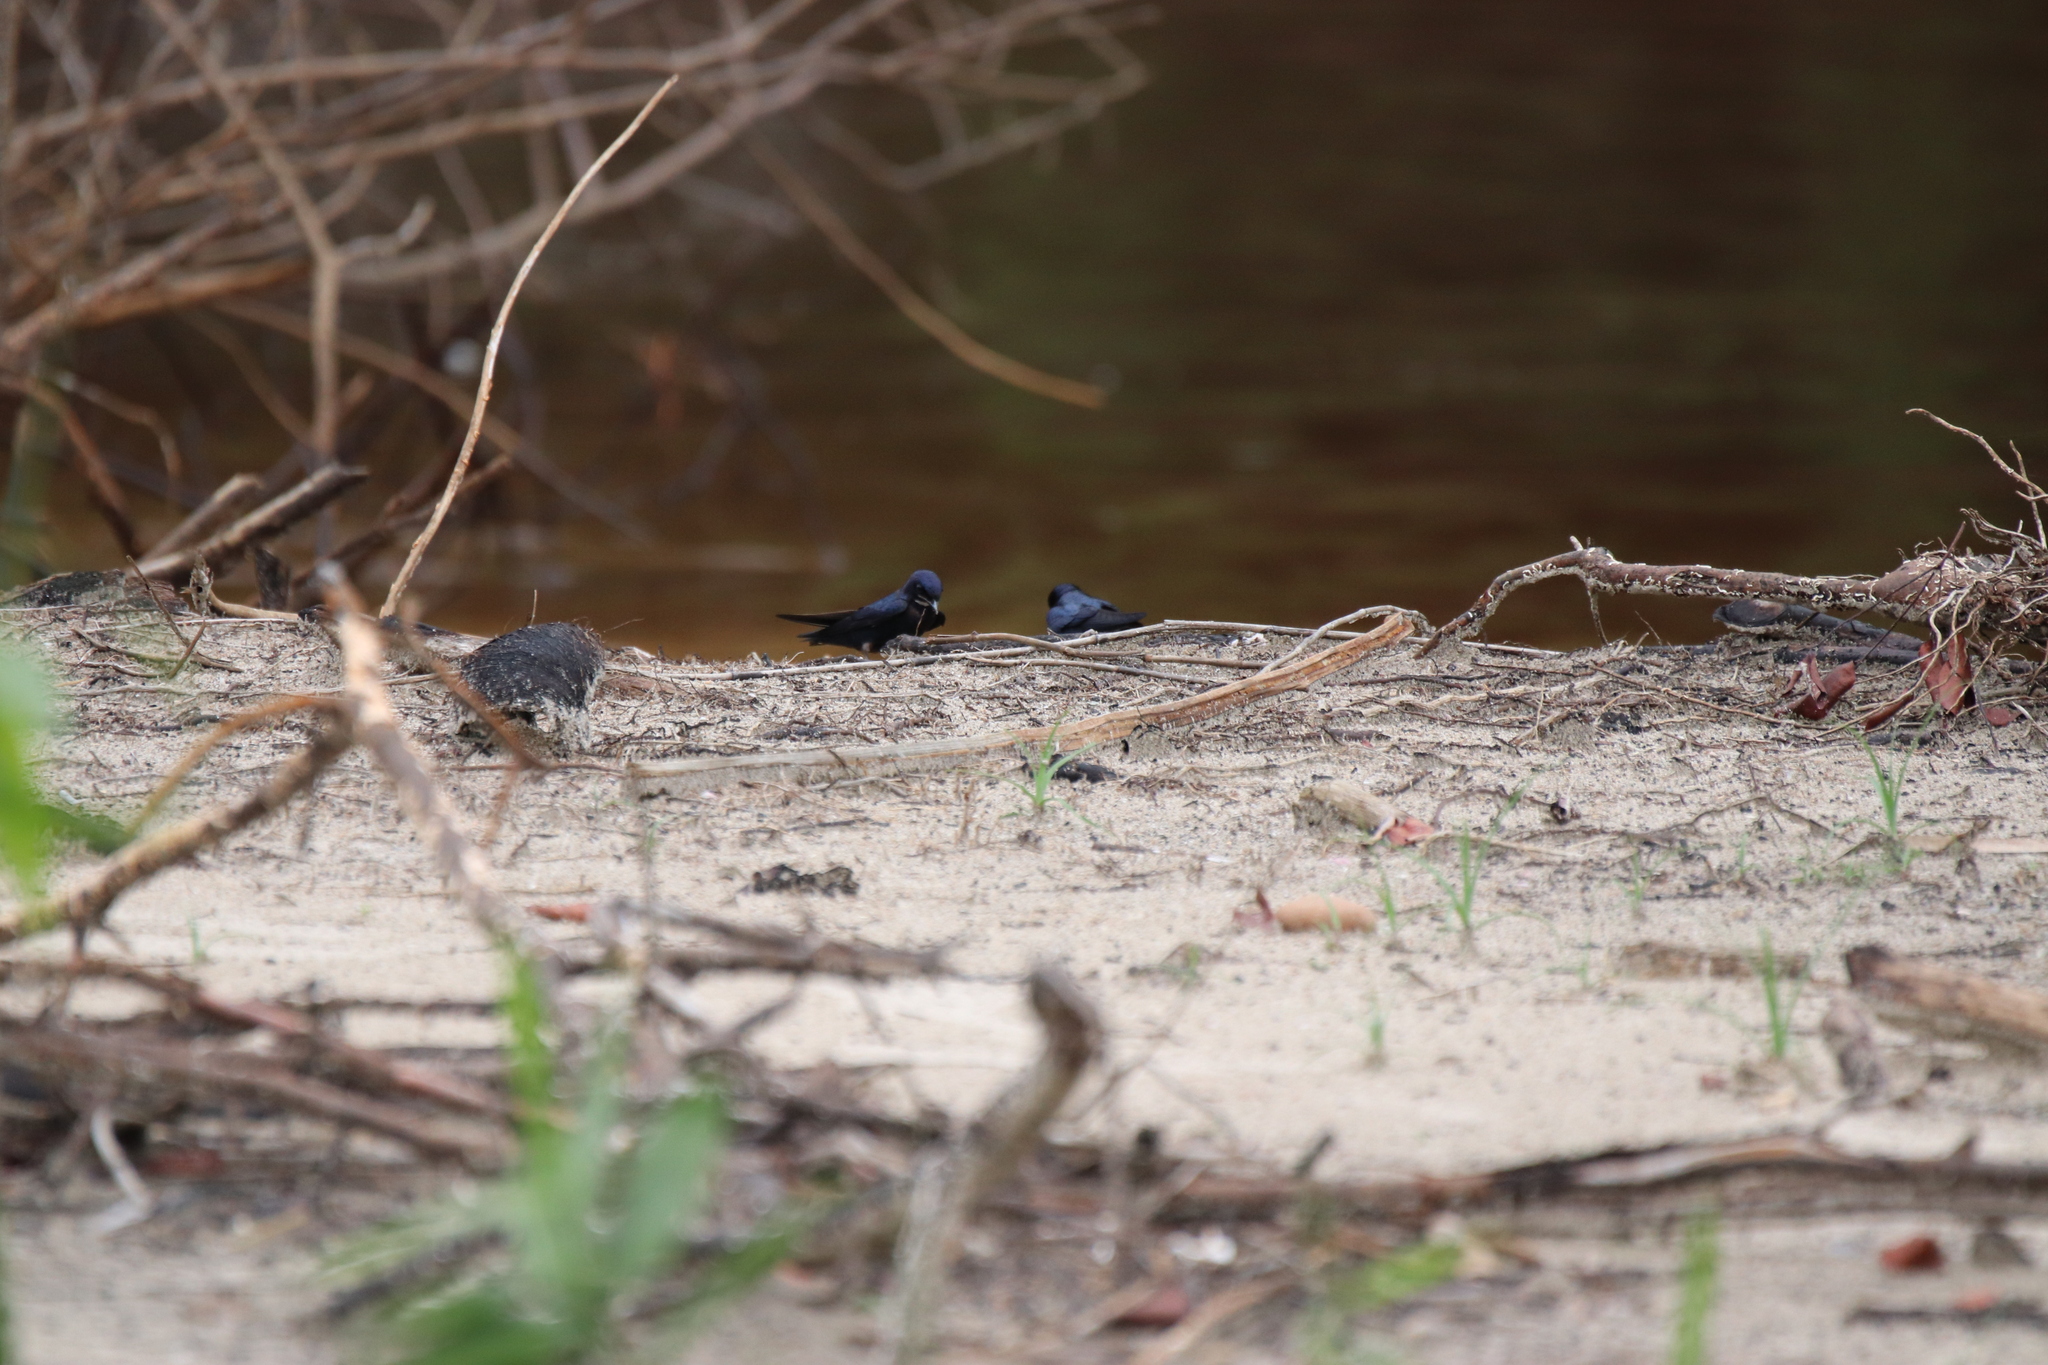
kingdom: Animalia
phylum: Chordata
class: Aves
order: Passeriformes
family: Hirundinidae
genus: Hirundo
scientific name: Hirundo nigrita
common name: White-bibbed swallow
